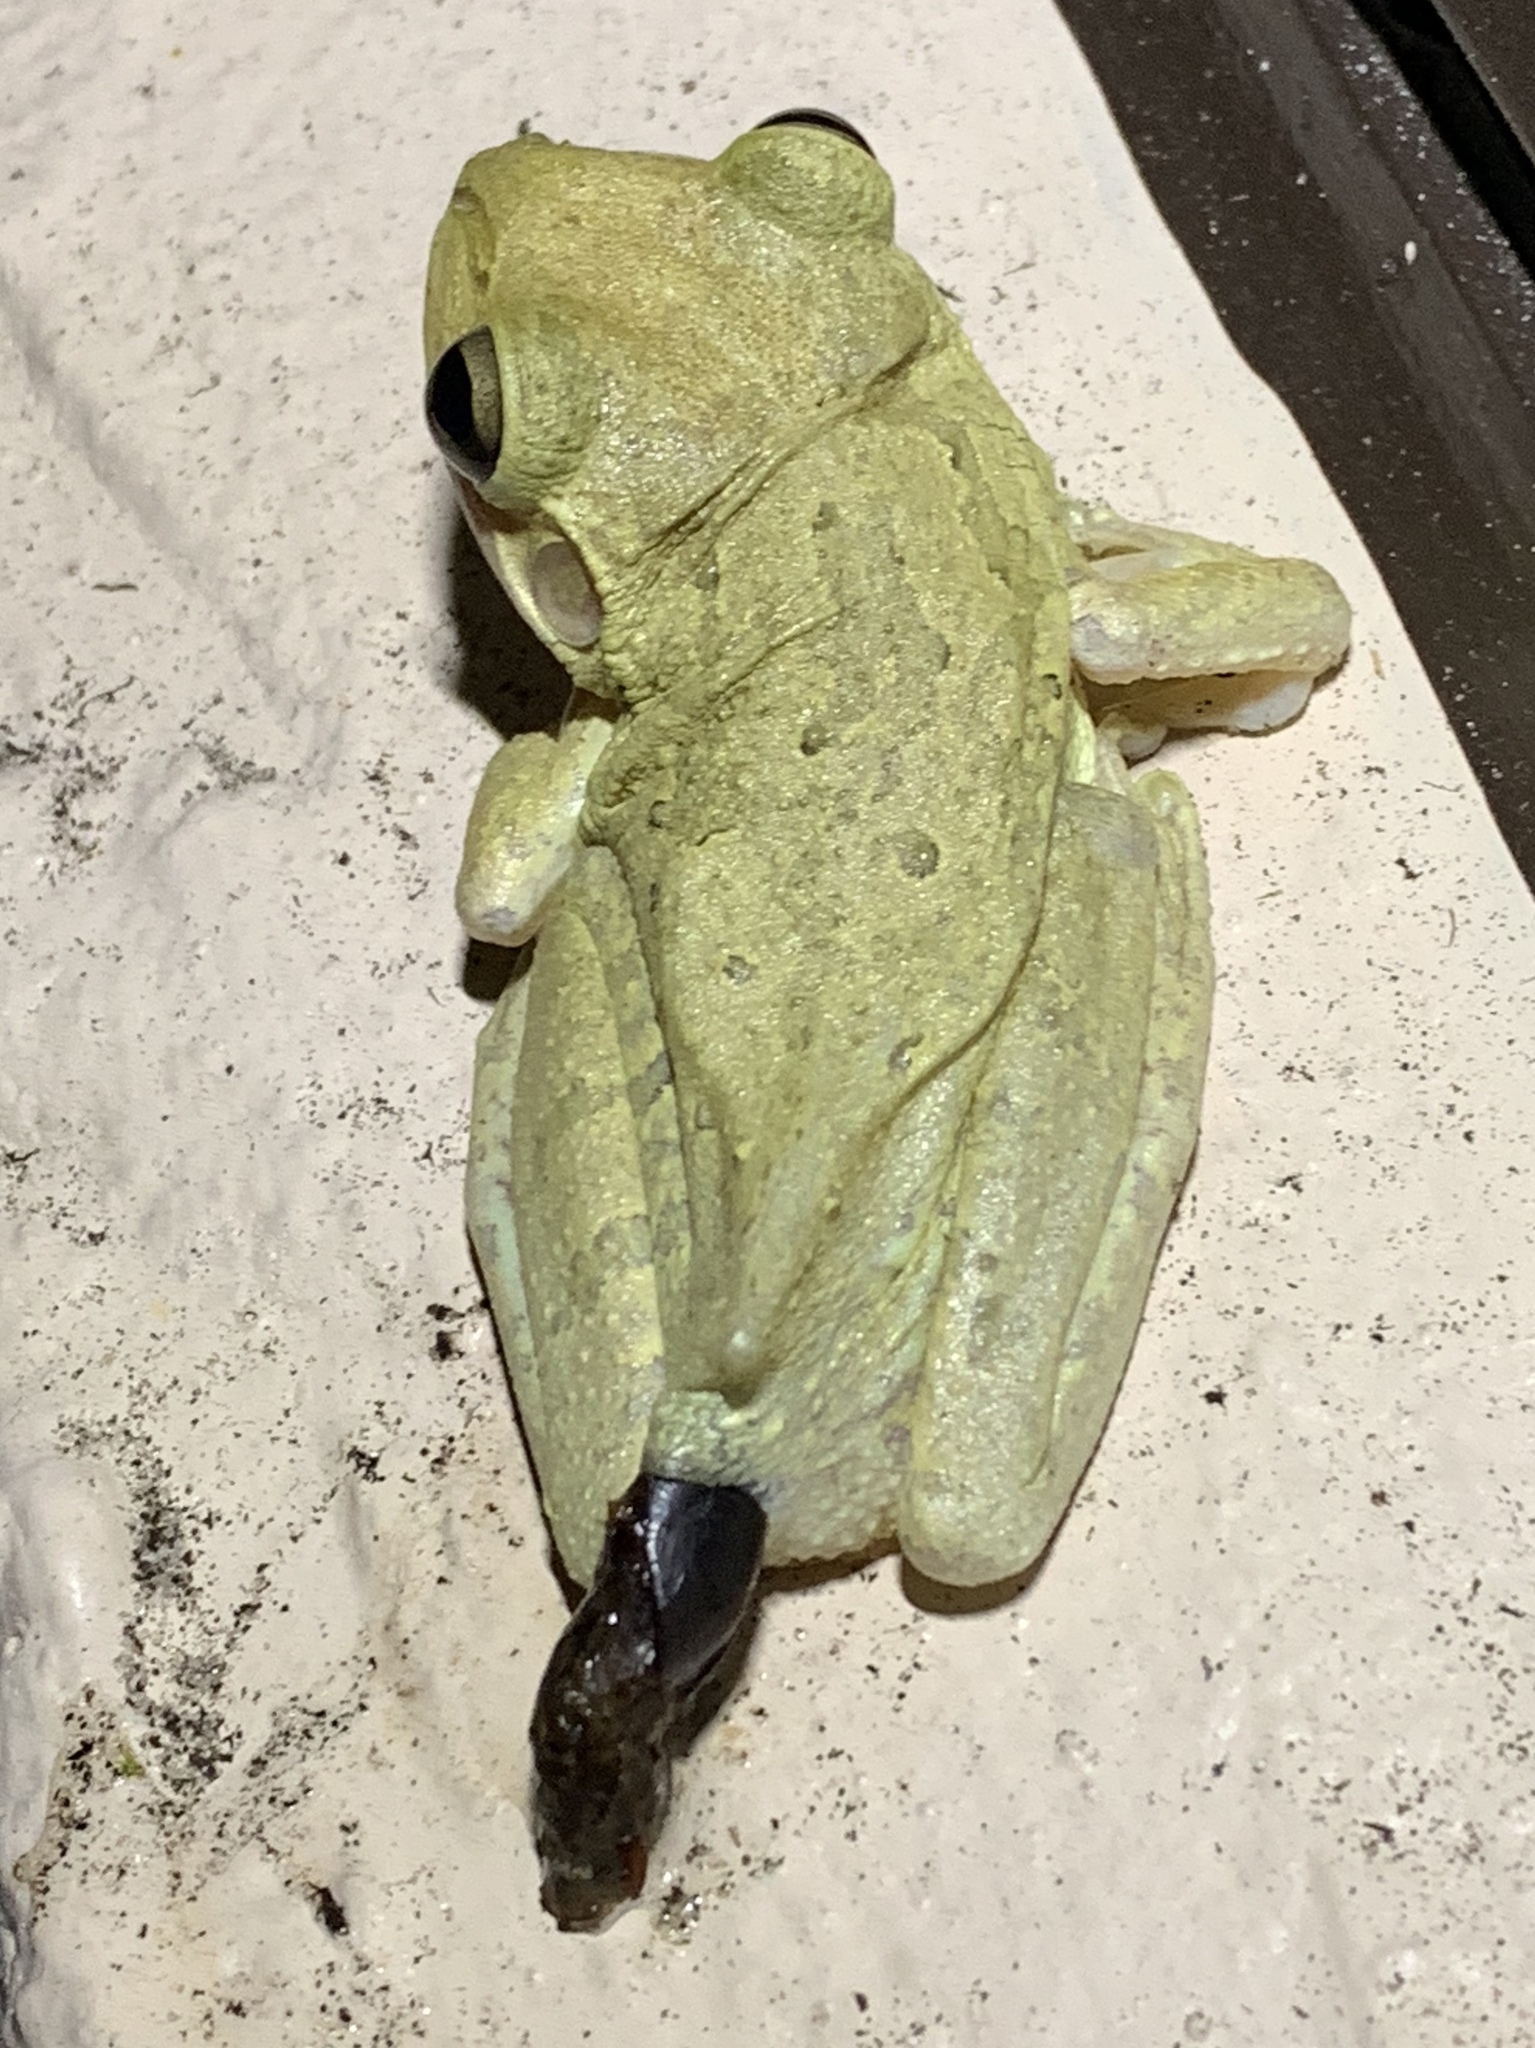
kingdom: Animalia
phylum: Chordata
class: Amphibia
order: Anura
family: Hylidae
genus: Osteopilus
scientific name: Osteopilus septentrionalis
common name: Cuban treefrog
